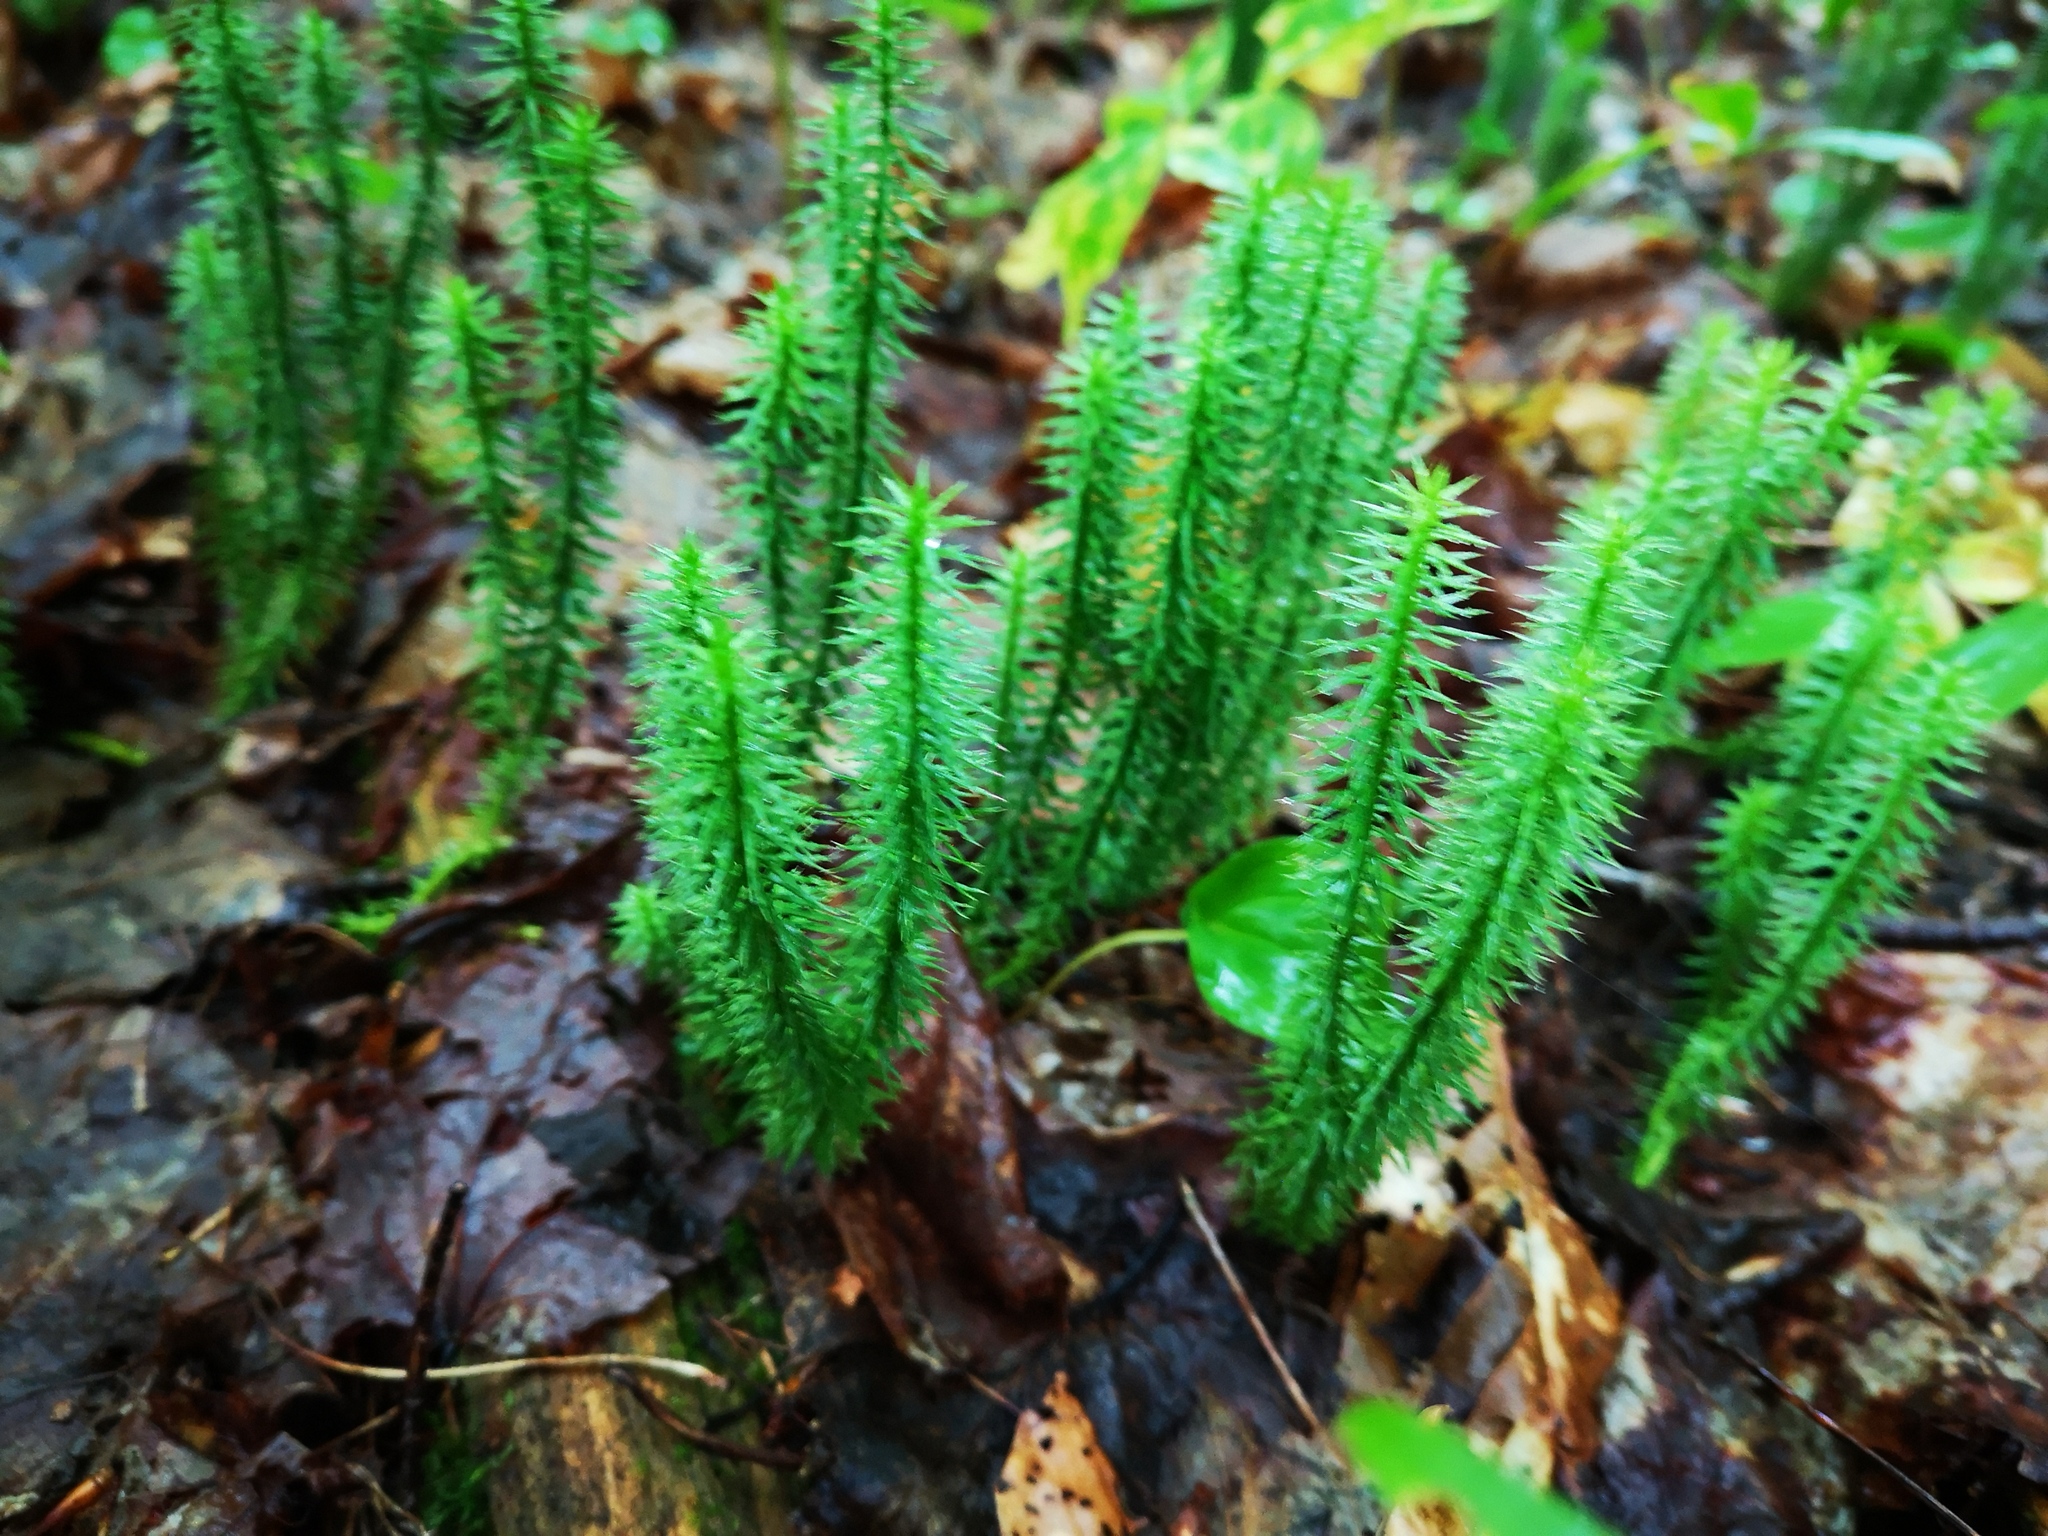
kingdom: Plantae
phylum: Tracheophyta
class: Lycopodiopsida
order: Lycopodiales
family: Lycopodiaceae
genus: Spinulum
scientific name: Spinulum annotinum
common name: Interrupted club-moss
